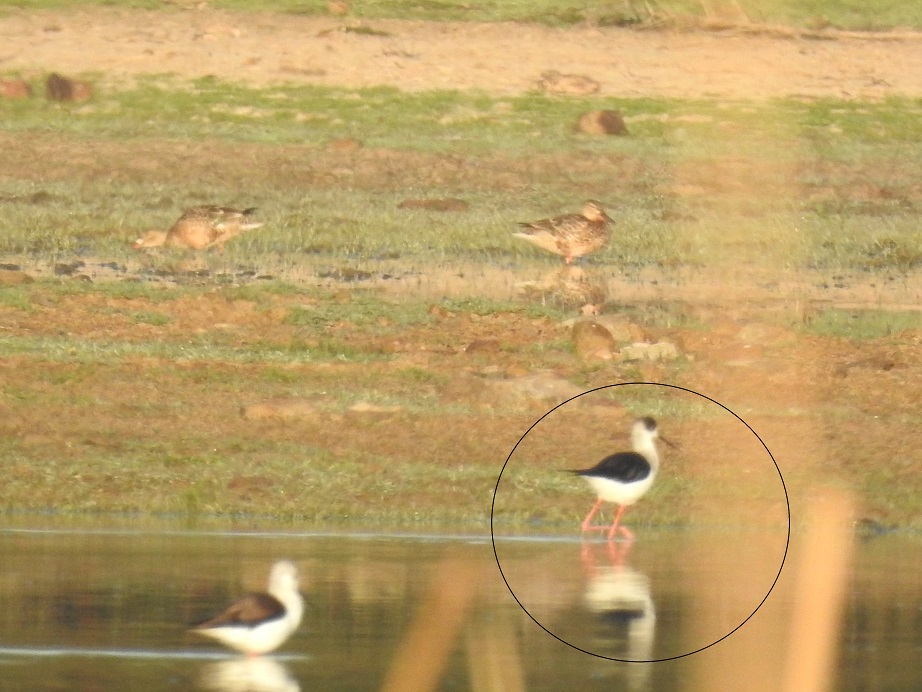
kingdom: Animalia
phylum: Chordata
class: Aves
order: Charadriiformes
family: Recurvirostridae
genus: Himantopus
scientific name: Himantopus himantopus
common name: Black-winged stilt
